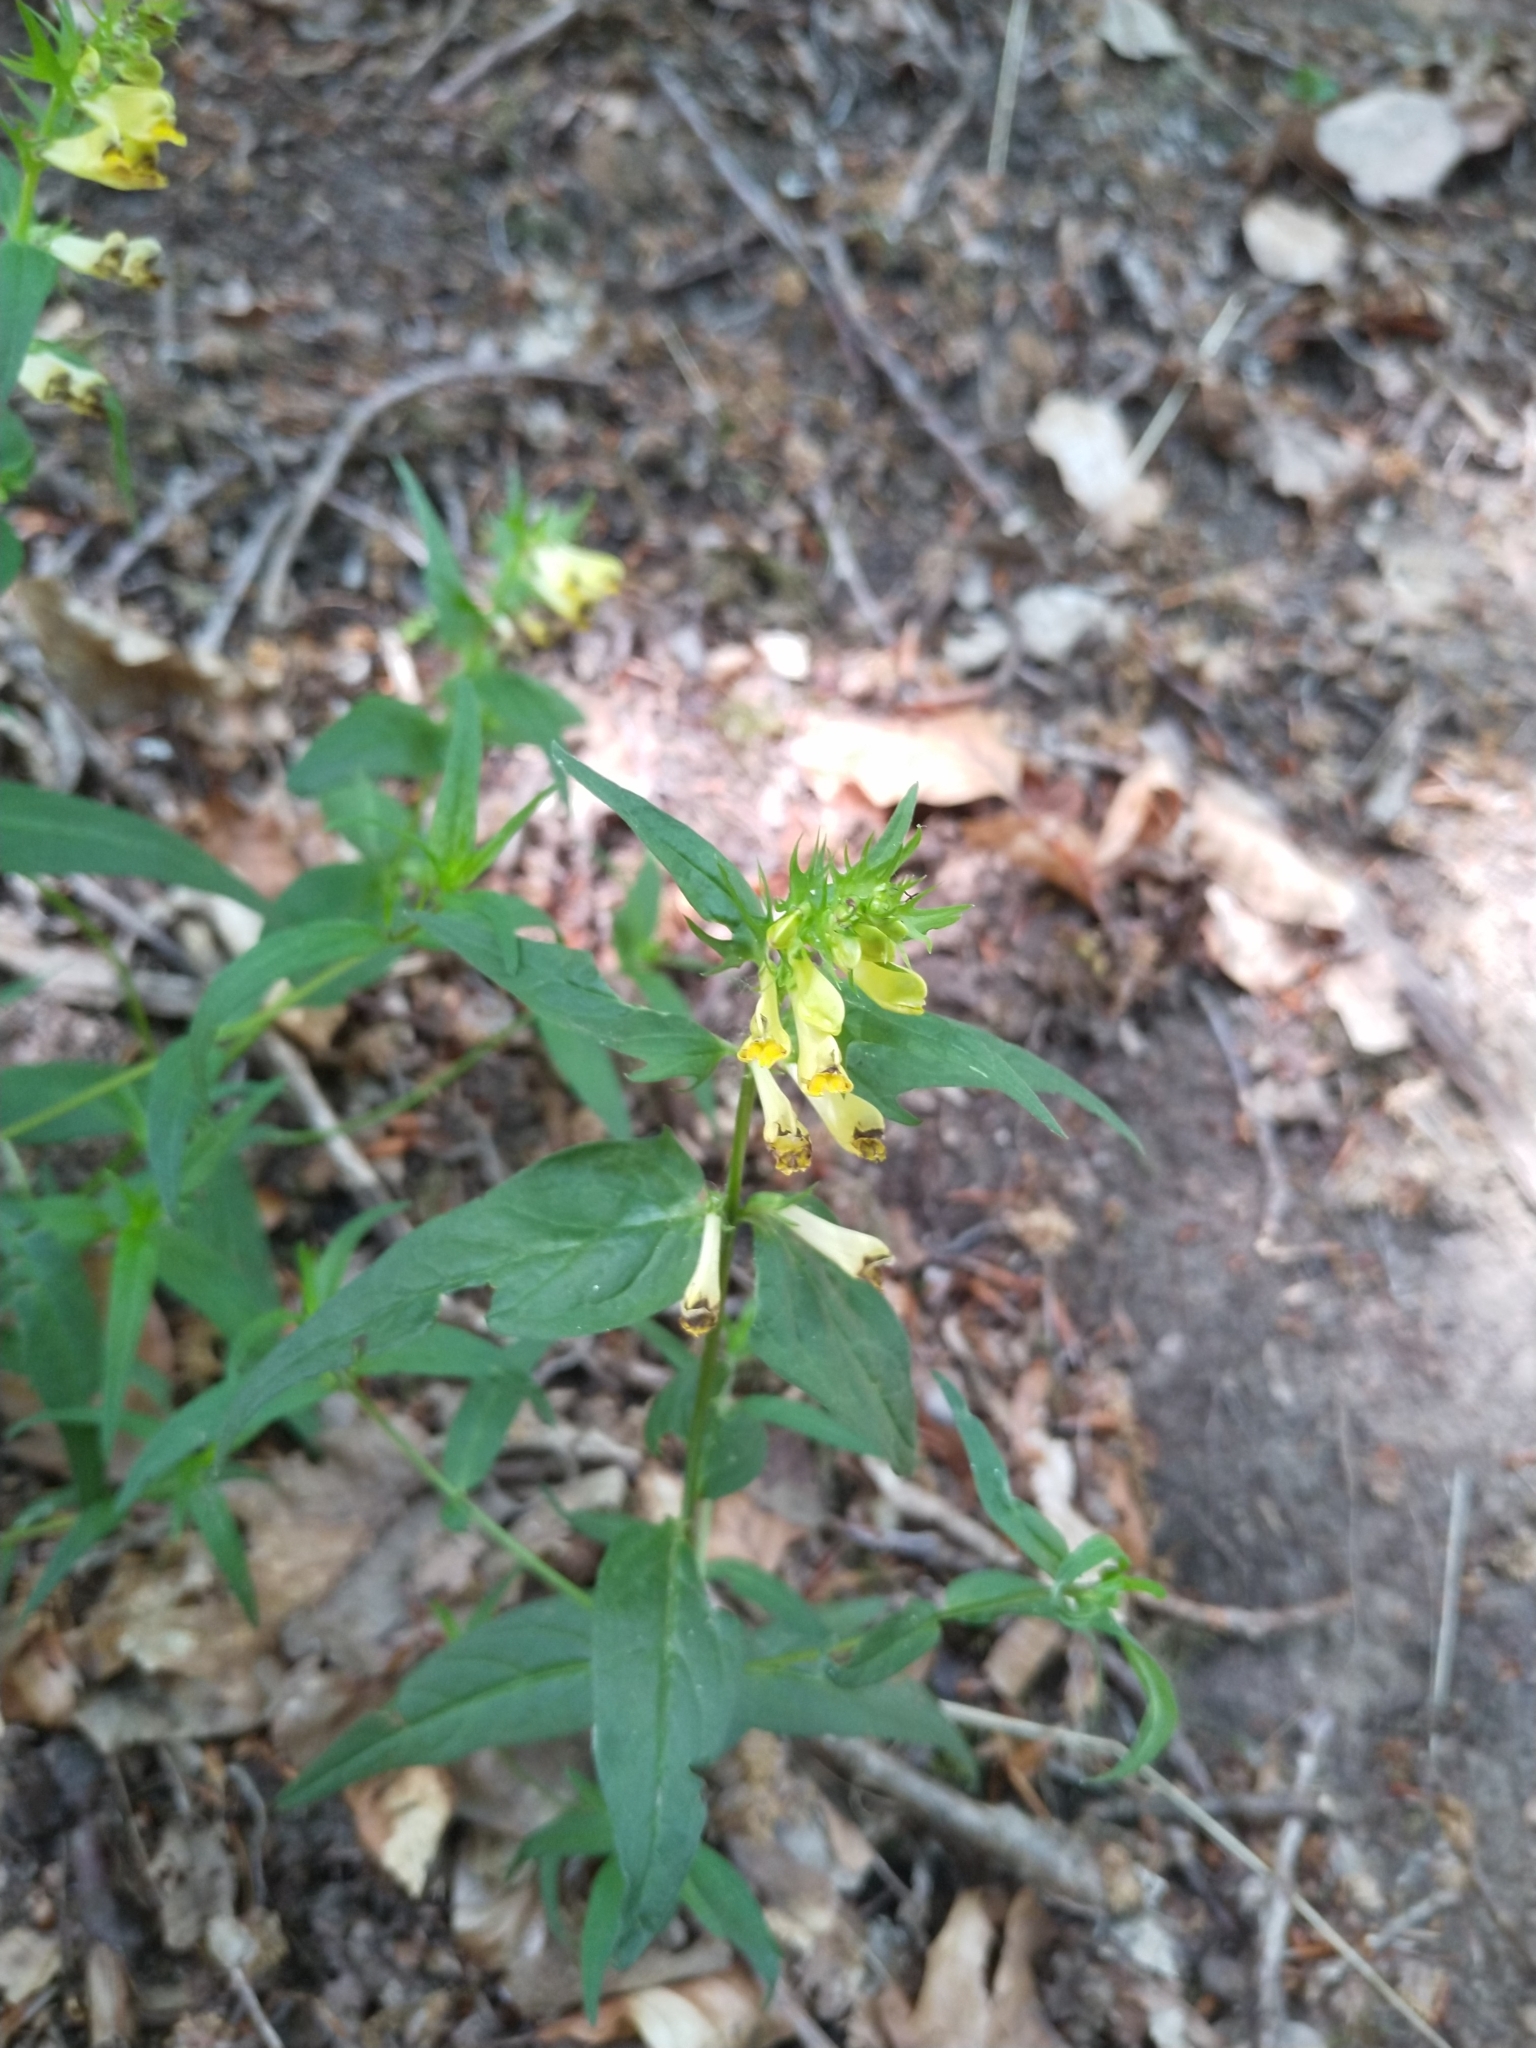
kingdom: Plantae
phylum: Tracheophyta
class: Magnoliopsida
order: Lamiales
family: Orobanchaceae
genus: Melampyrum
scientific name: Melampyrum pratense
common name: Common cow-wheat
